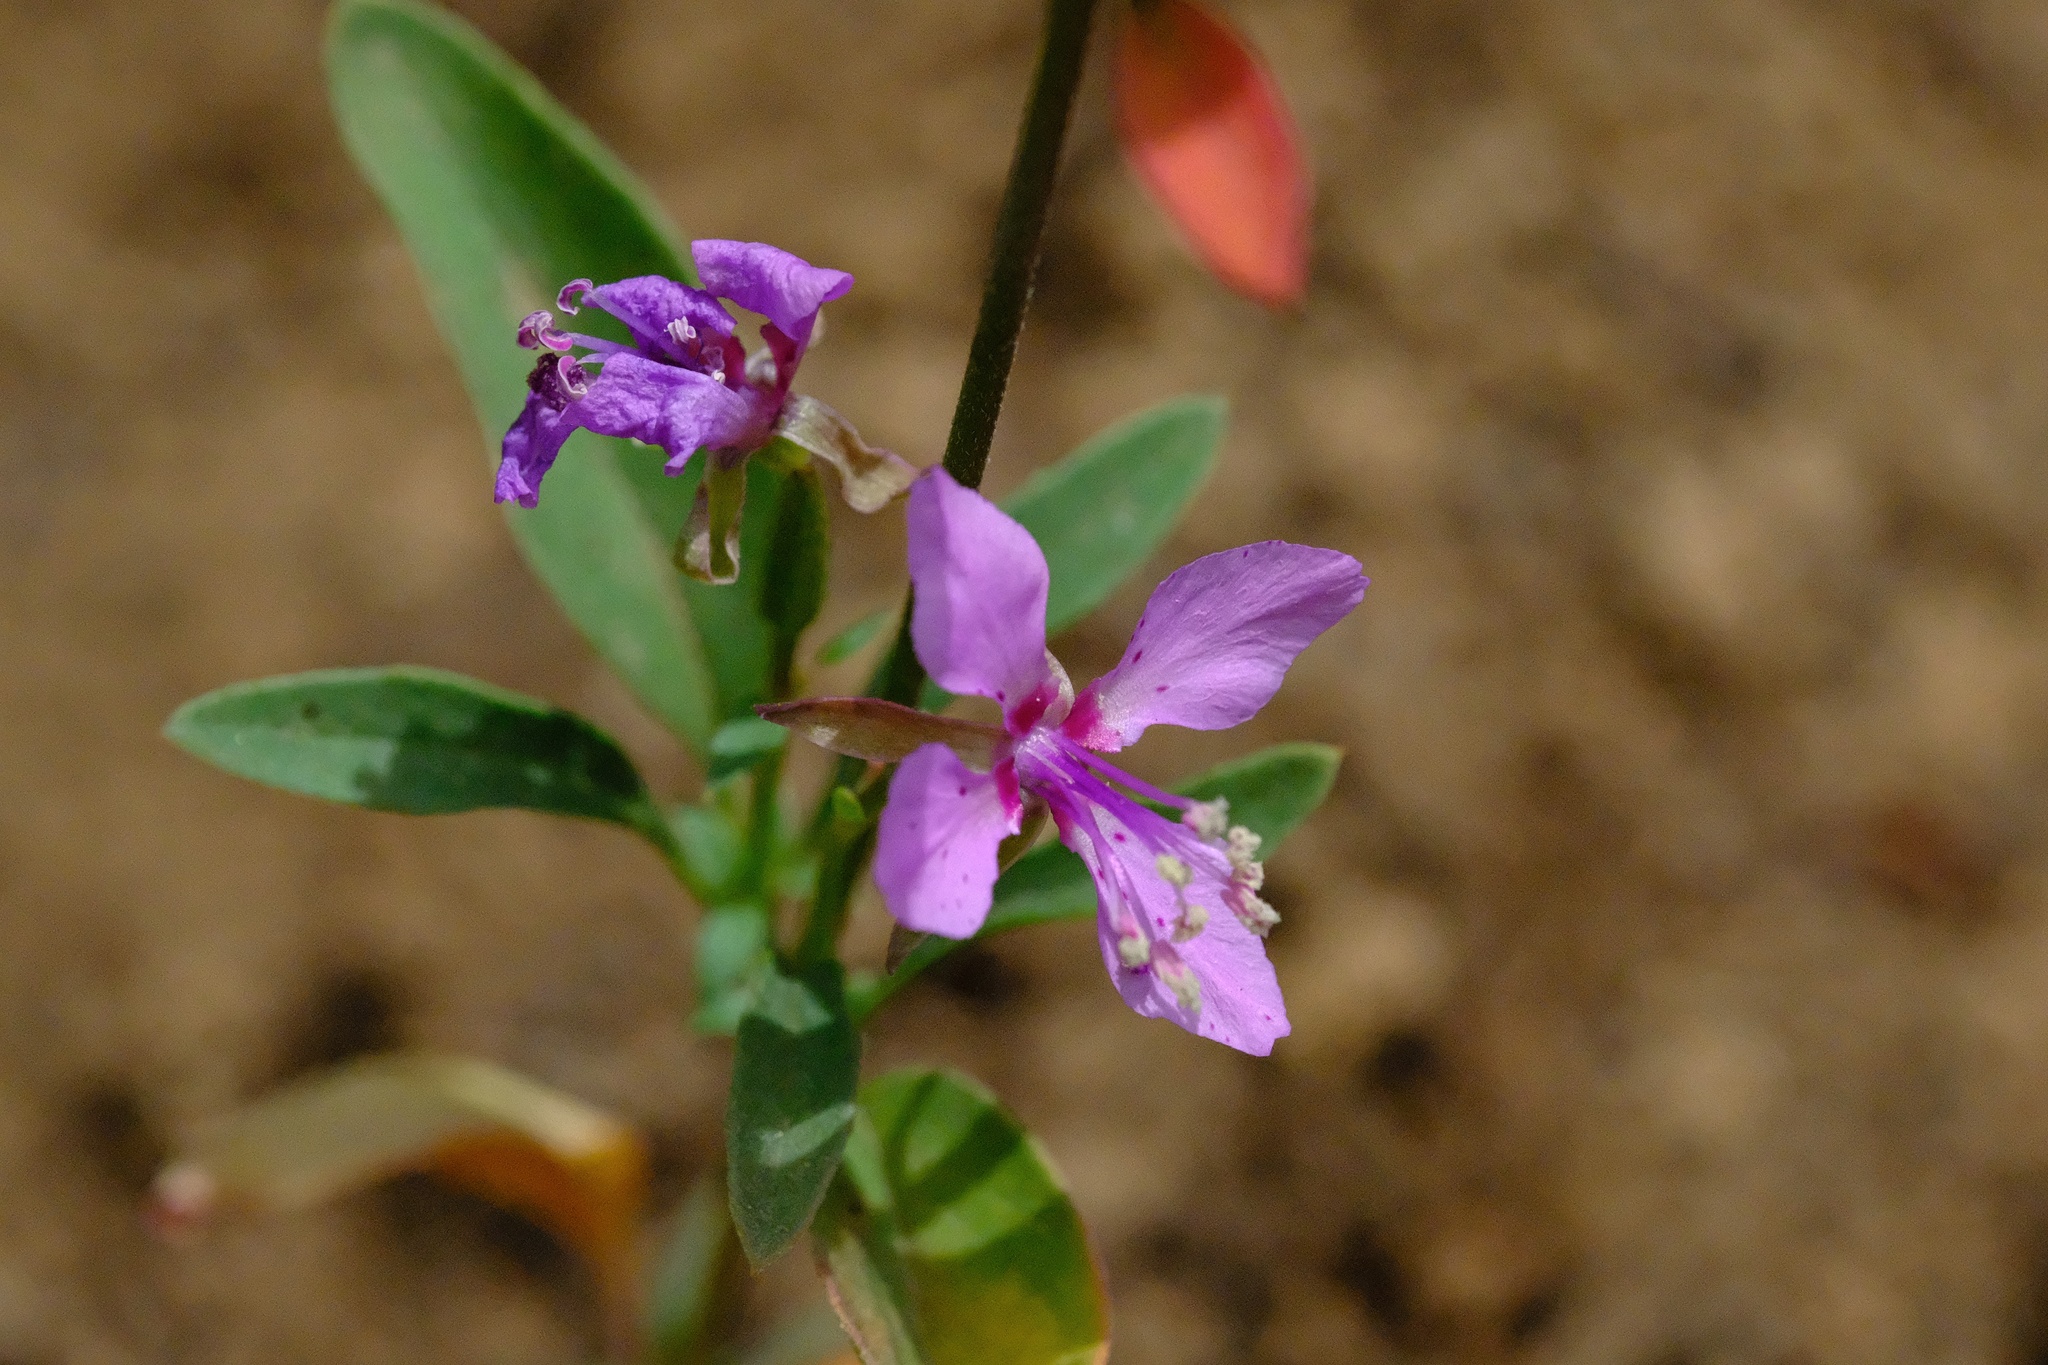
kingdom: Plantae
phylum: Tracheophyta
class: Magnoliopsida
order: Myrtales
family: Onagraceae
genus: Clarkia
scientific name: Clarkia rhomboidea
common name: Broadleaf clarkia
